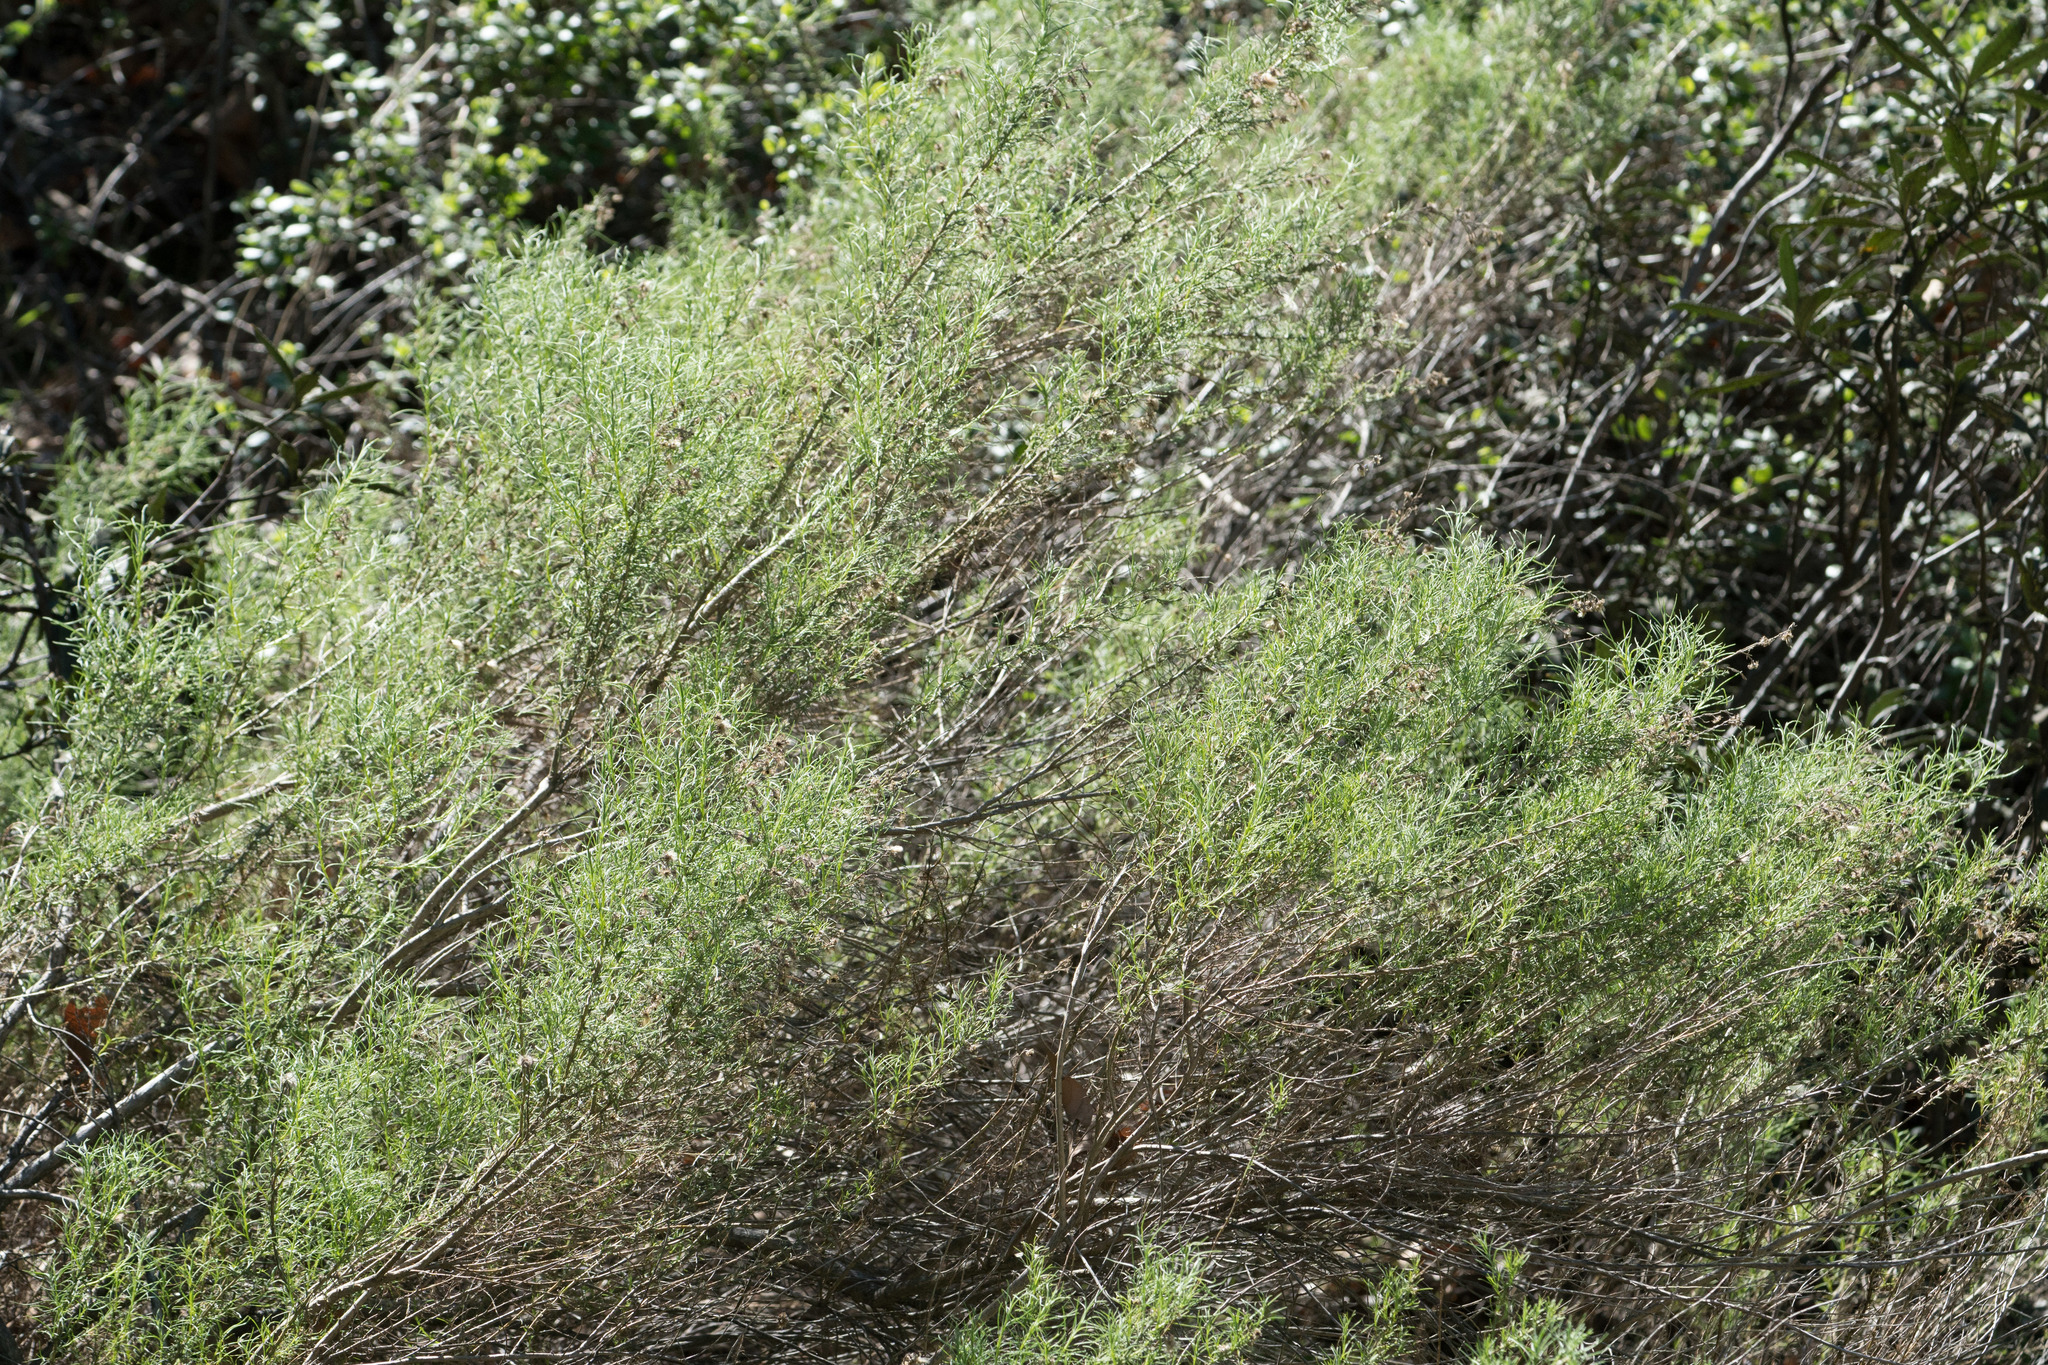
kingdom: Plantae
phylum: Tracheophyta
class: Magnoliopsida
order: Asterales
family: Asteraceae
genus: Artemisia
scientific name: Artemisia californica
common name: California sagebrush
